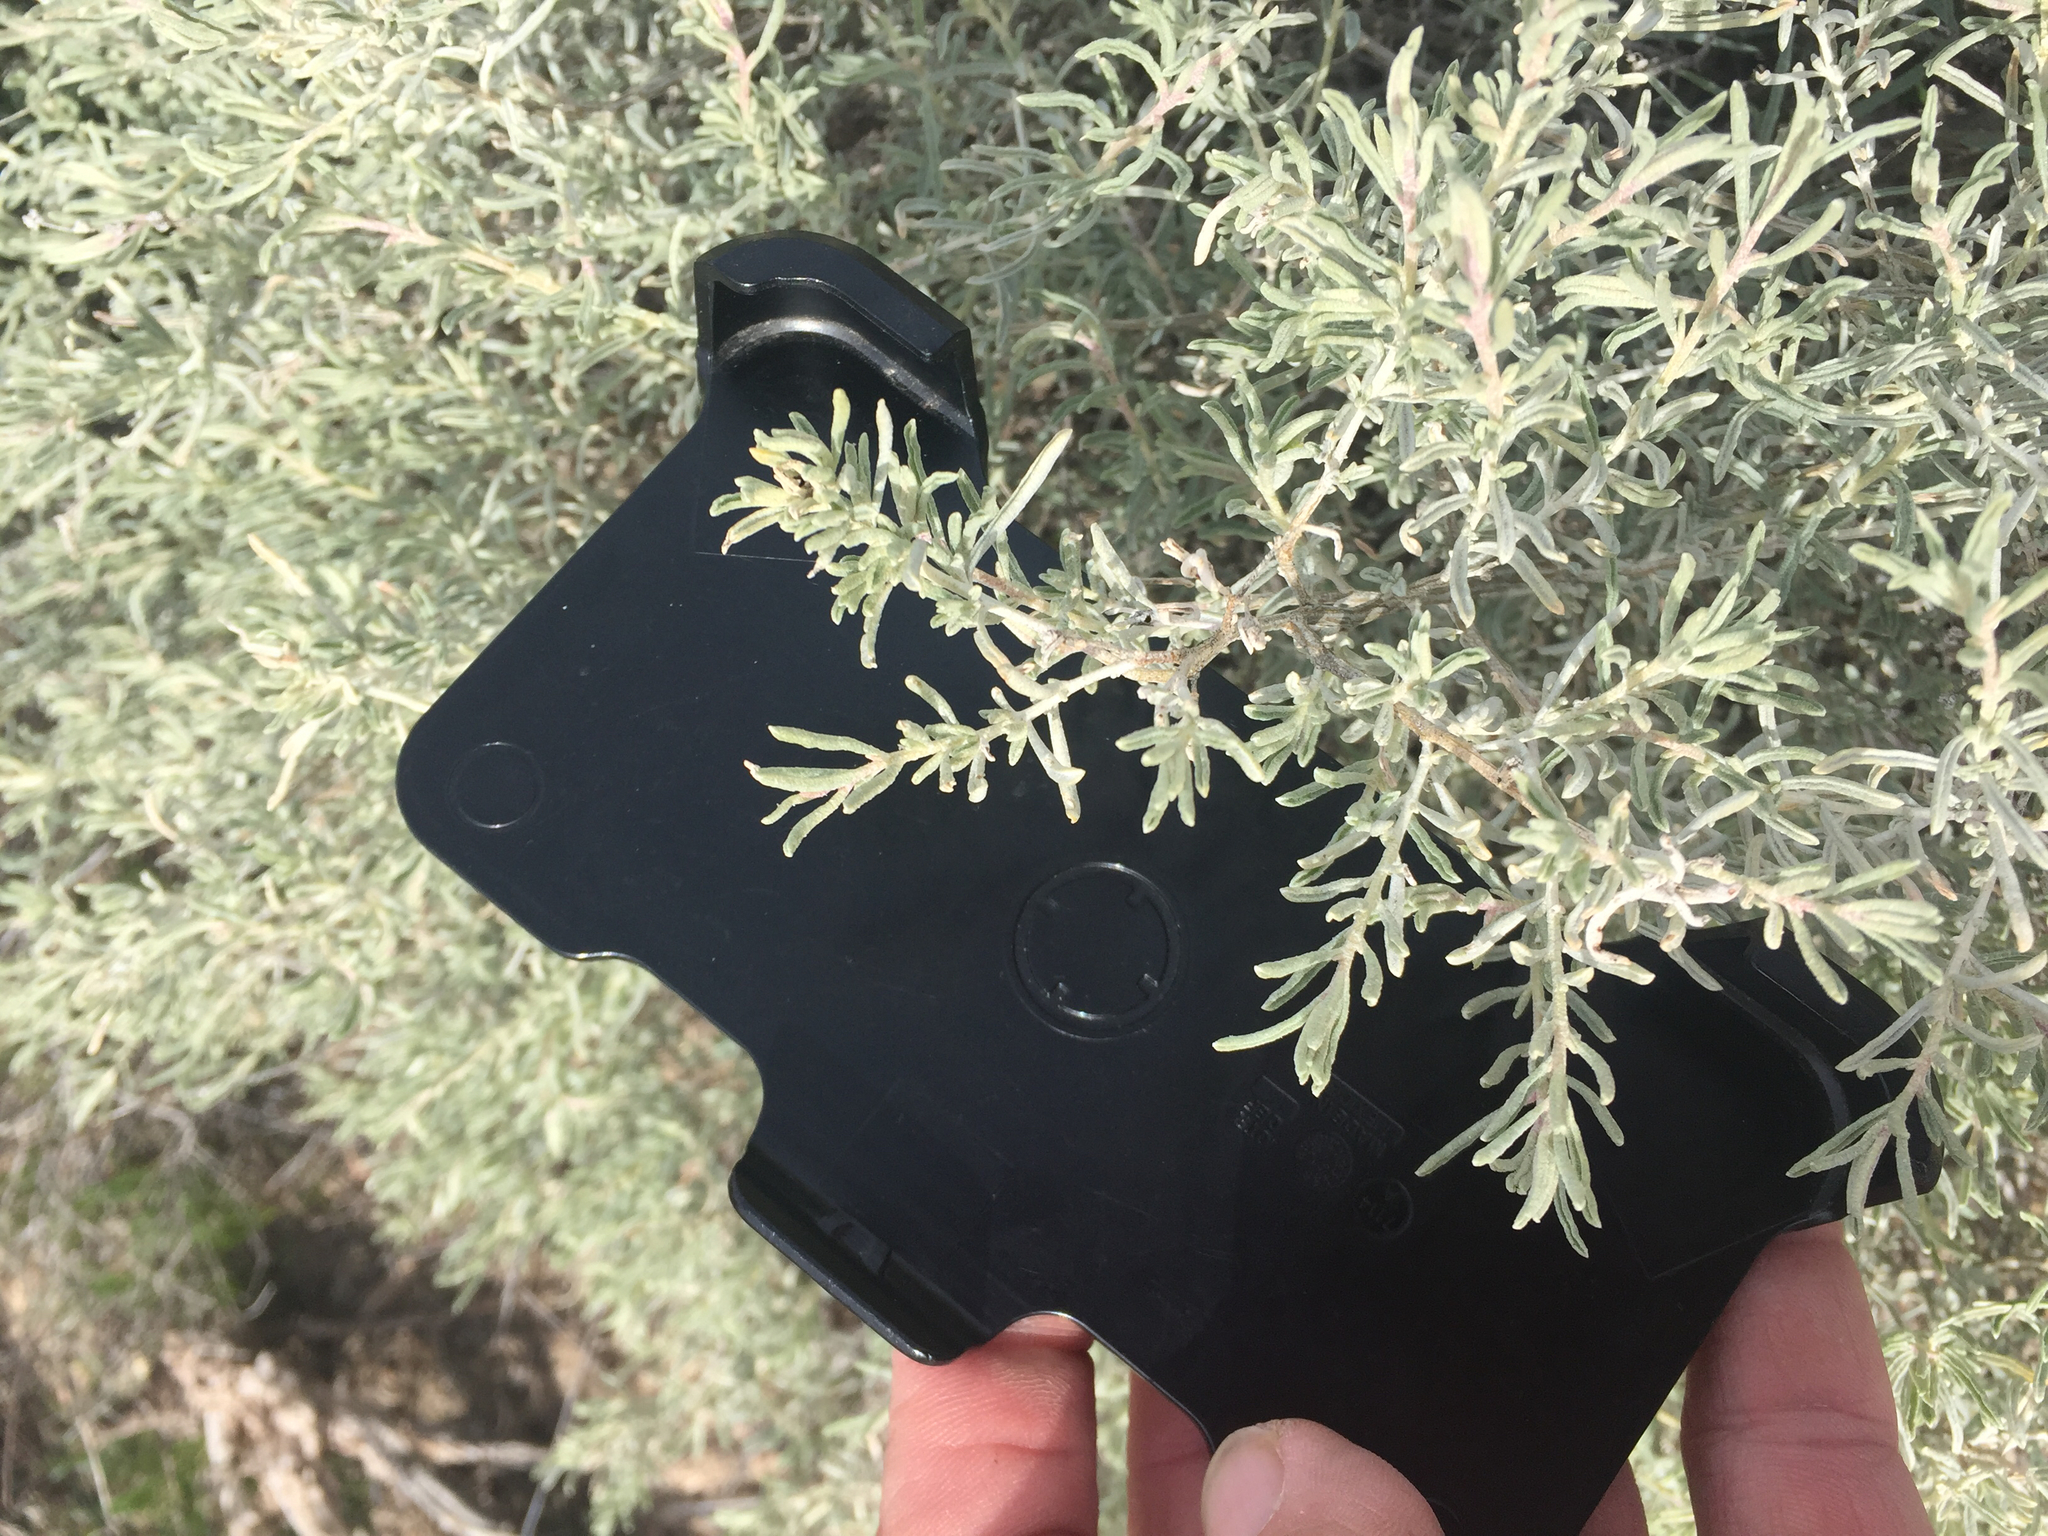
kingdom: Plantae
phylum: Tracheophyta
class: Magnoliopsida
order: Caryophyllales
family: Amaranthaceae
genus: Atriplex
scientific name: Atriplex canescens
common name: Four-wing saltbush
